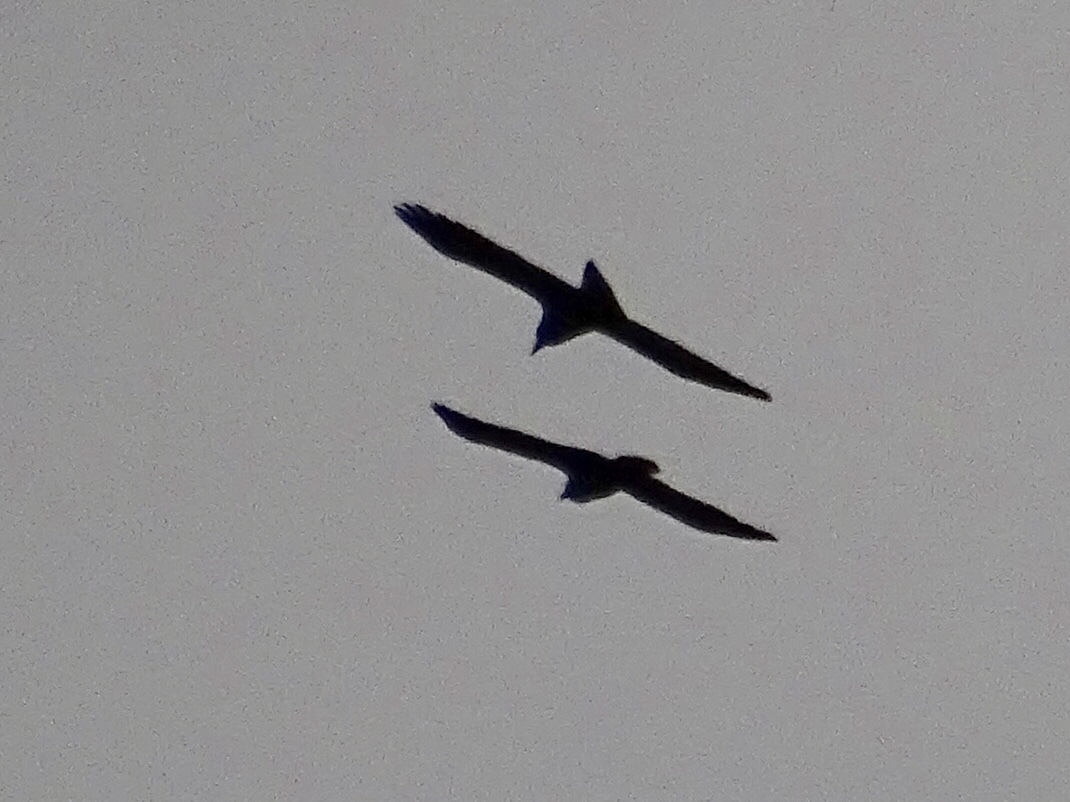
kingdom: Animalia
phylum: Chordata
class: Aves
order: Passeriformes
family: Corvidae
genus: Corvus
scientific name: Corvus corax
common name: Common raven
